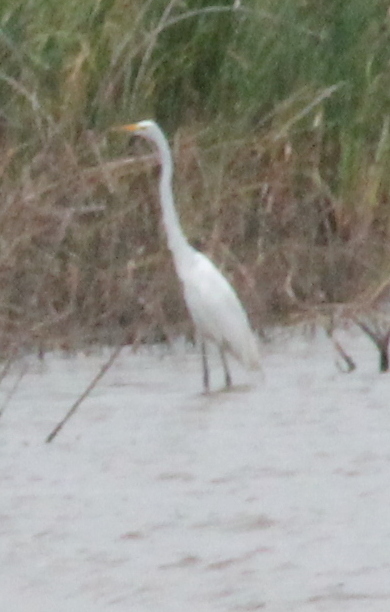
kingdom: Animalia
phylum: Chordata
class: Aves
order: Pelecaniformes
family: Ardeidae
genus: Ardea
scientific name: Ardea alba
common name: Great egret
